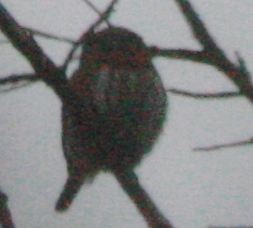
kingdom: Animalia
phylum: Chordata
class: Aves
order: Strigiformes
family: Strigidae
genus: Glaucidium
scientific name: Glaucidium gnoma
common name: Northern pygmy-owl
